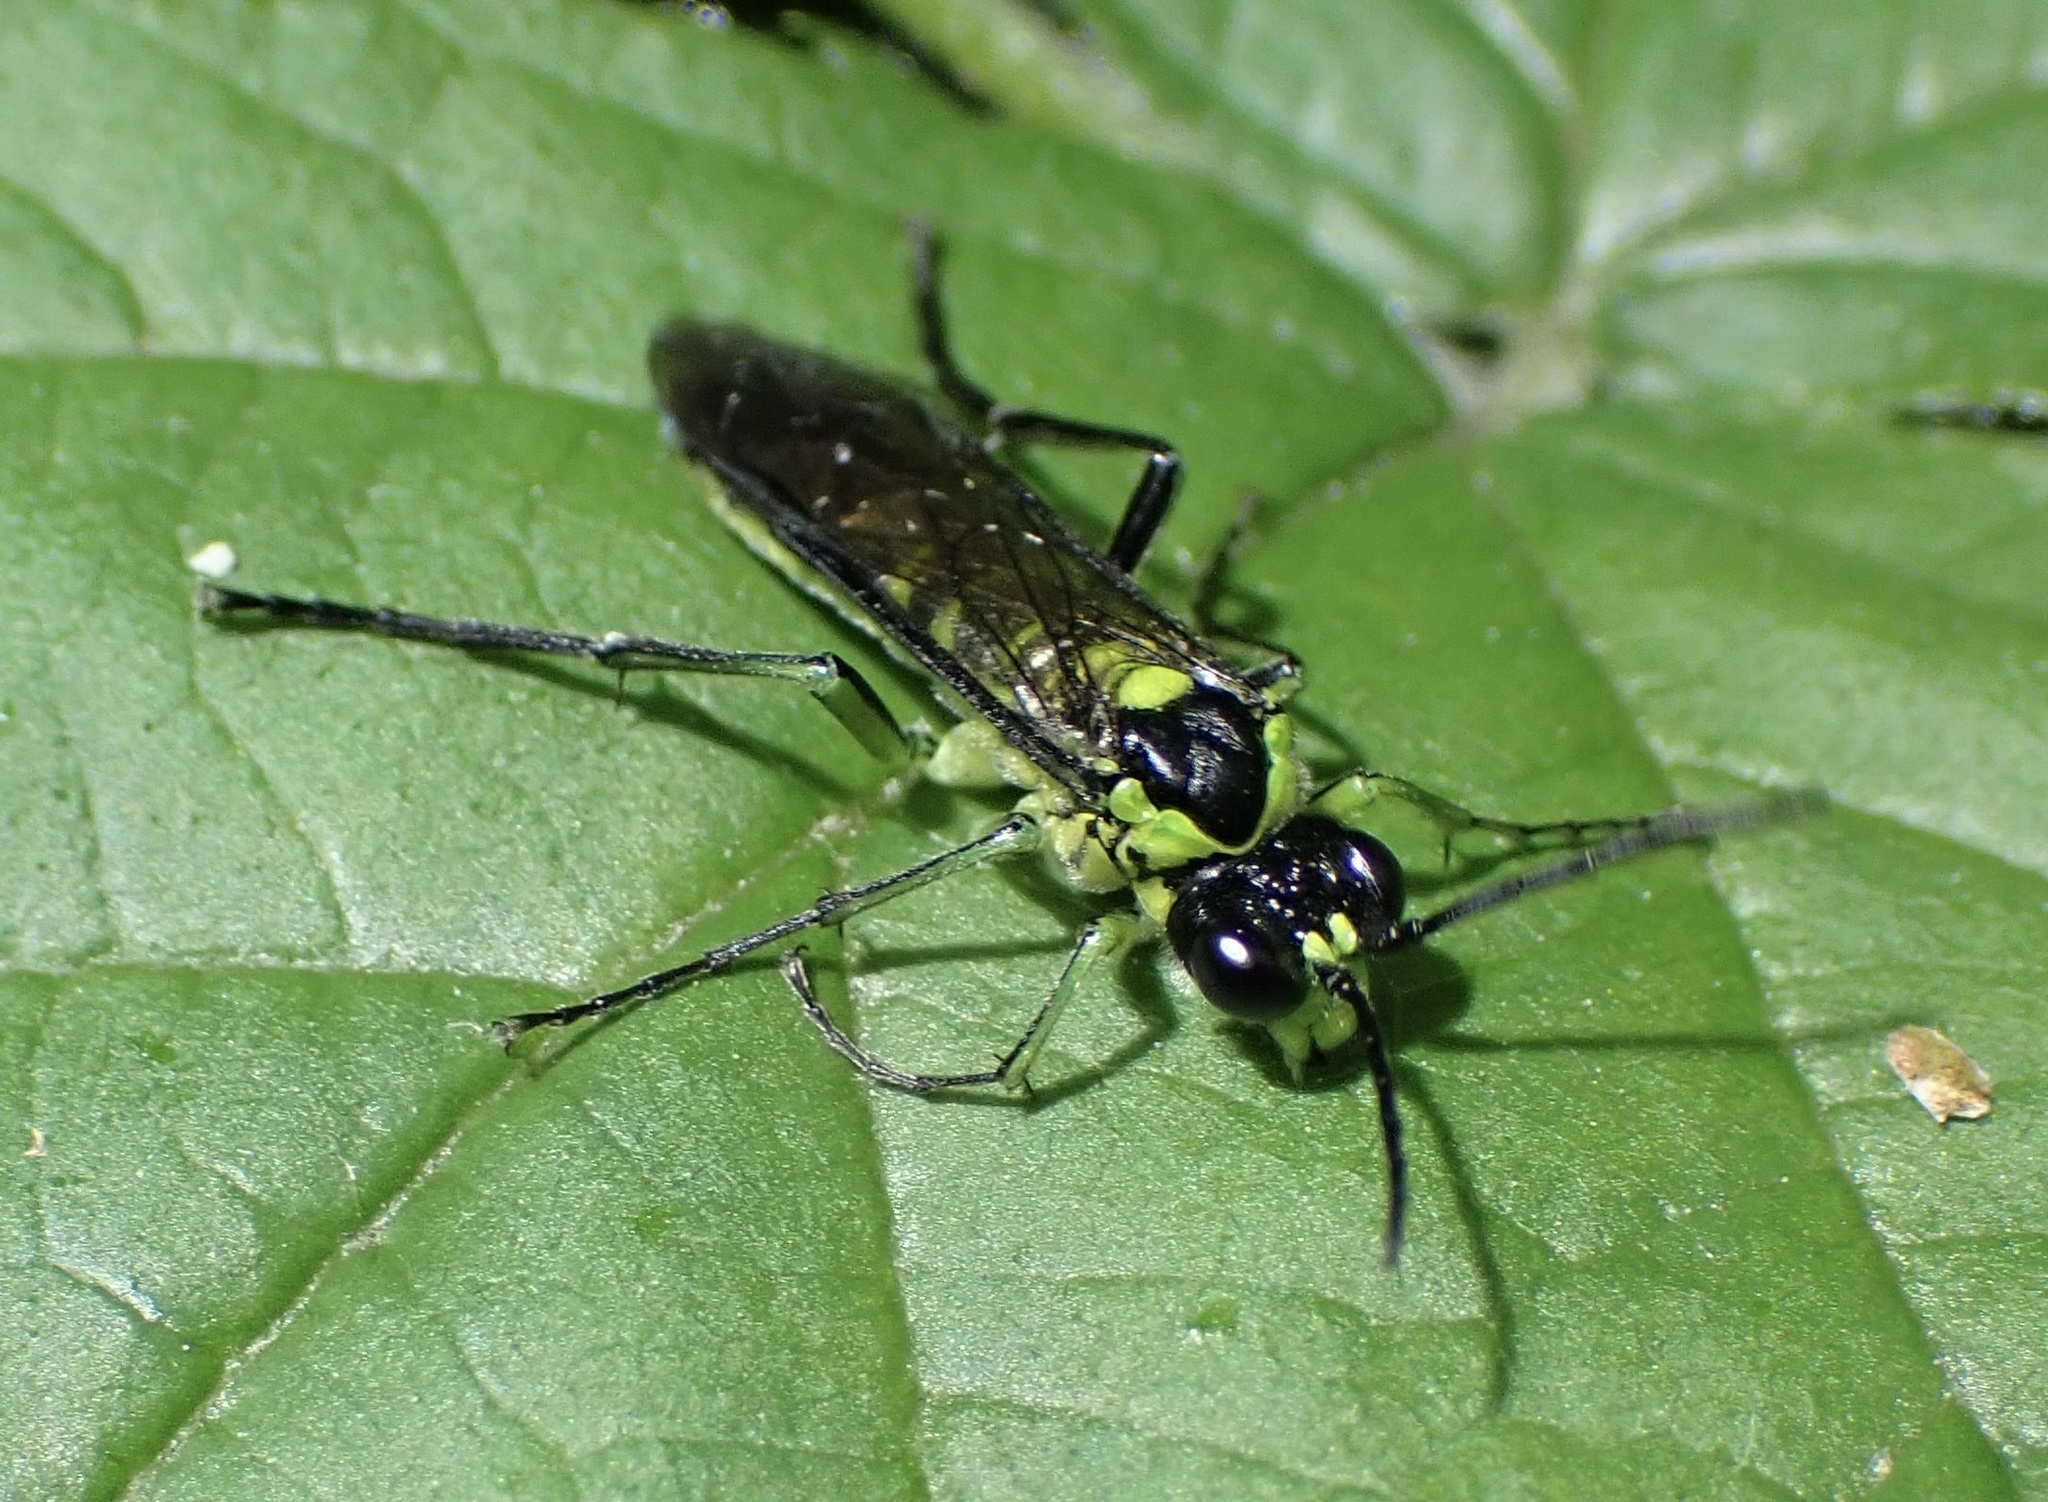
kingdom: Animalia
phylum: Arthropoda
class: Insecta
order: Hymenoptera
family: Tenthredinidae
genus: Tenthredo
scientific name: Tenthredo mesomela
